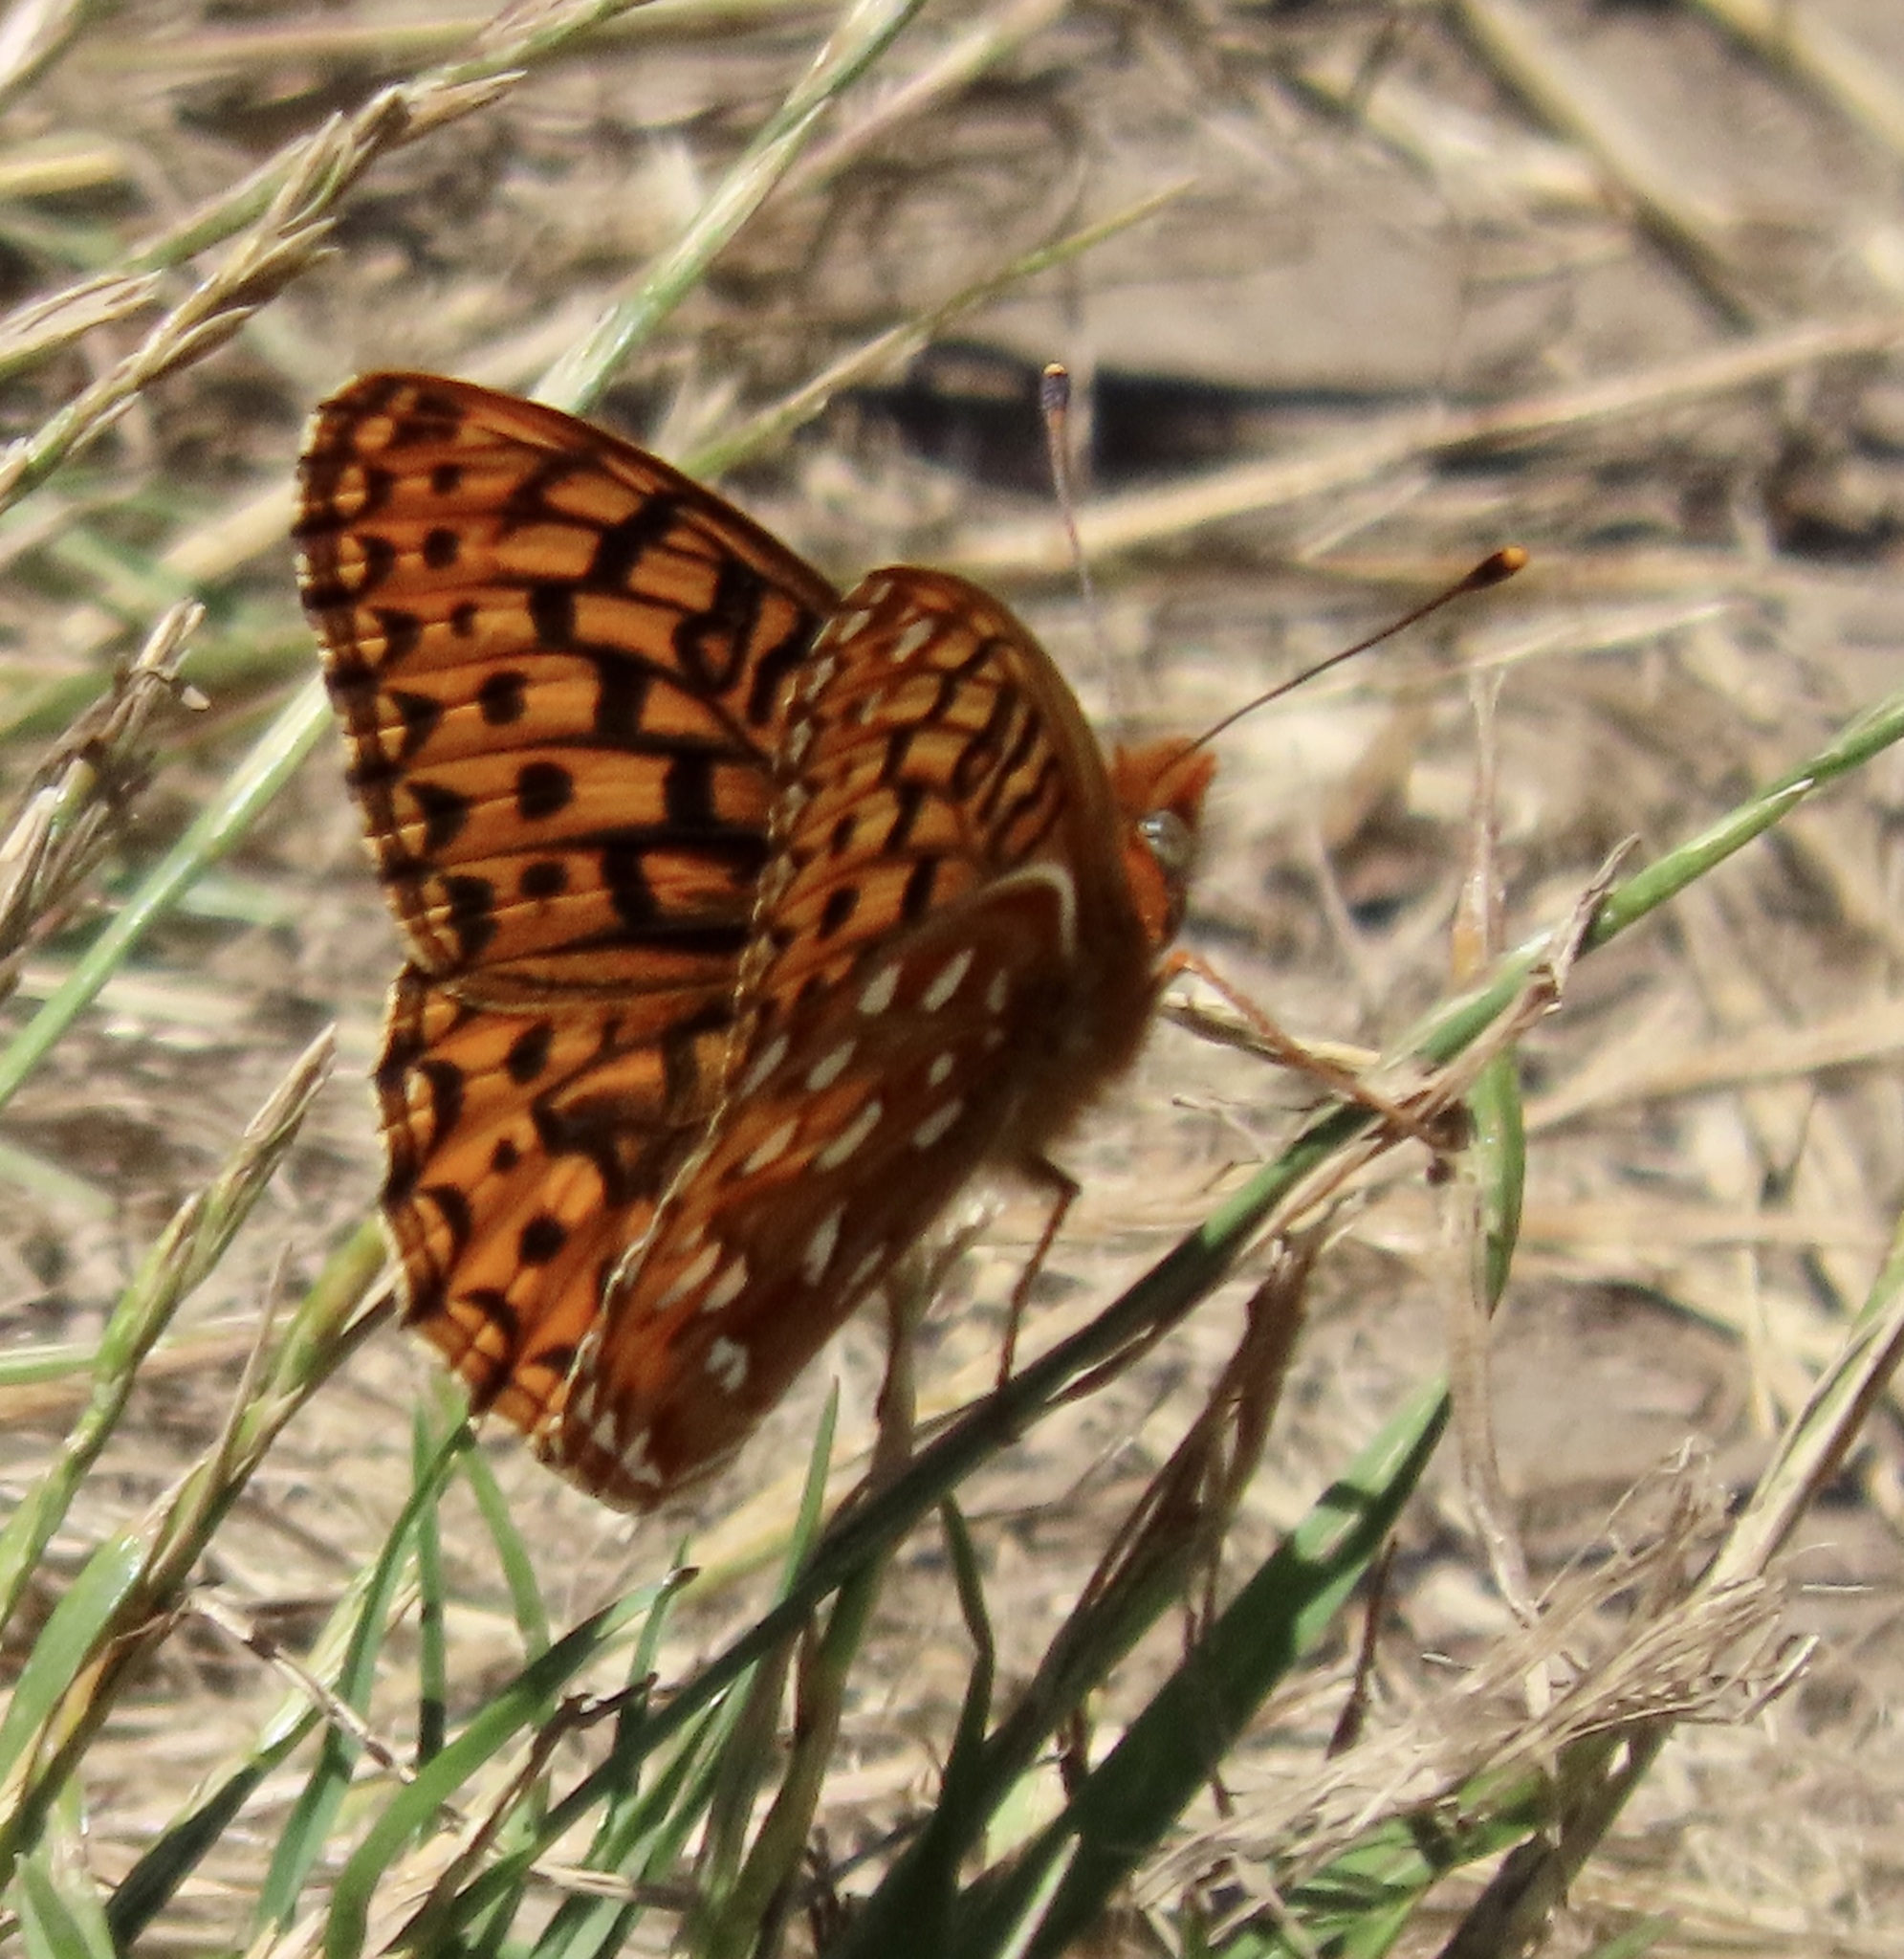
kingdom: Animalia
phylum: Arthropoda
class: Insecta
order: Lepidoptera
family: Nymphalidae
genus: Speyeria
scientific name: Speyeria zerene
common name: Zerene fritillary
